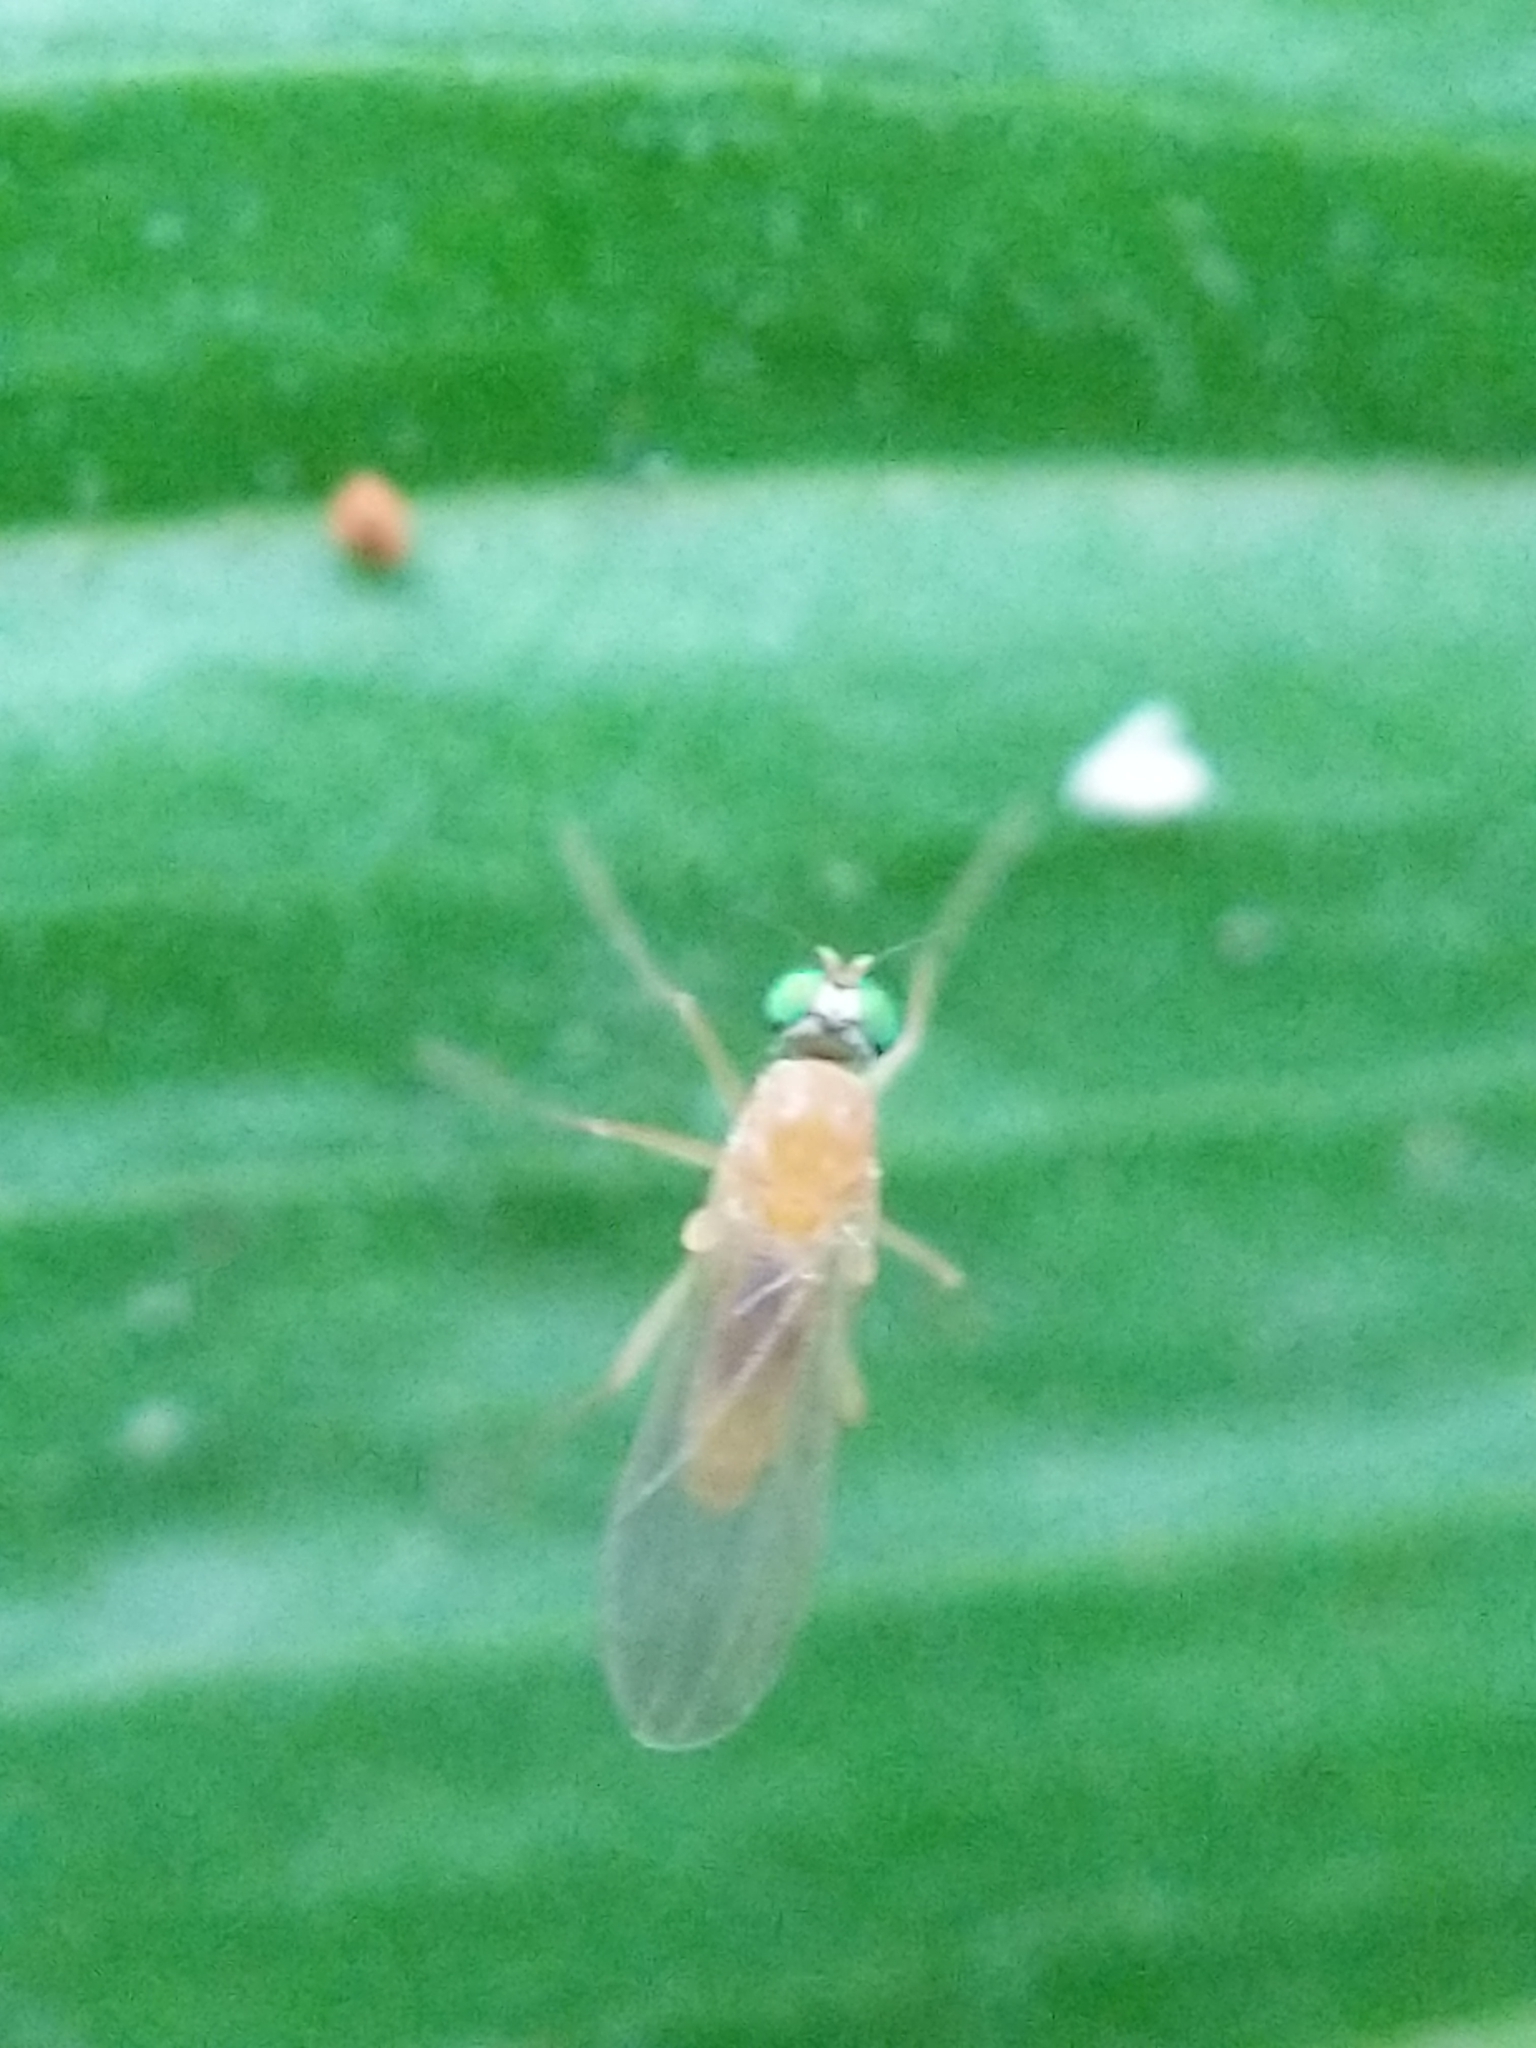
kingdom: Animalia
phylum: Arthropoda
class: Insecta
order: Diptera
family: Dolichopodidae
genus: Xanthochlorus
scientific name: Xanthochlorus helvinus
